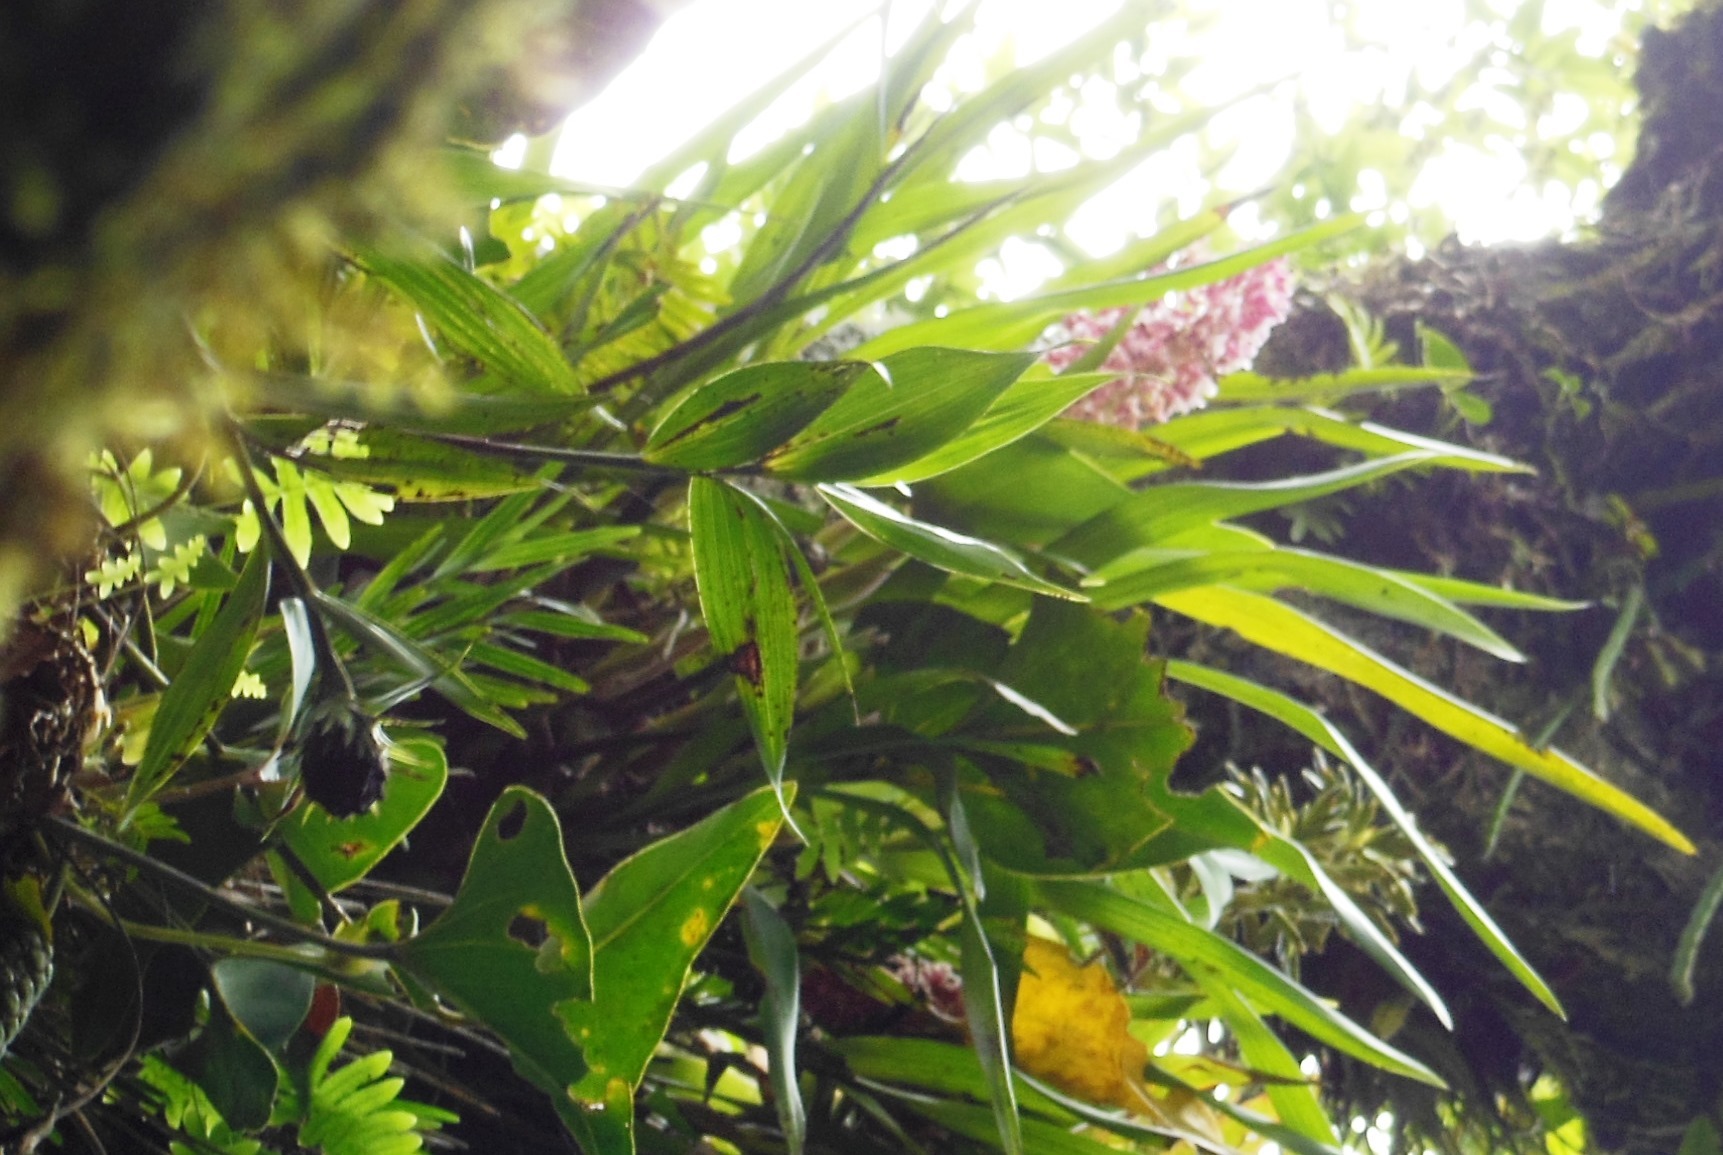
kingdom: Plantae
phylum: Tracheophyta
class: Liliopsida
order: Asparagales
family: Orchidaceae
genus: Arpophyllum
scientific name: Arpophyllum giganteum
